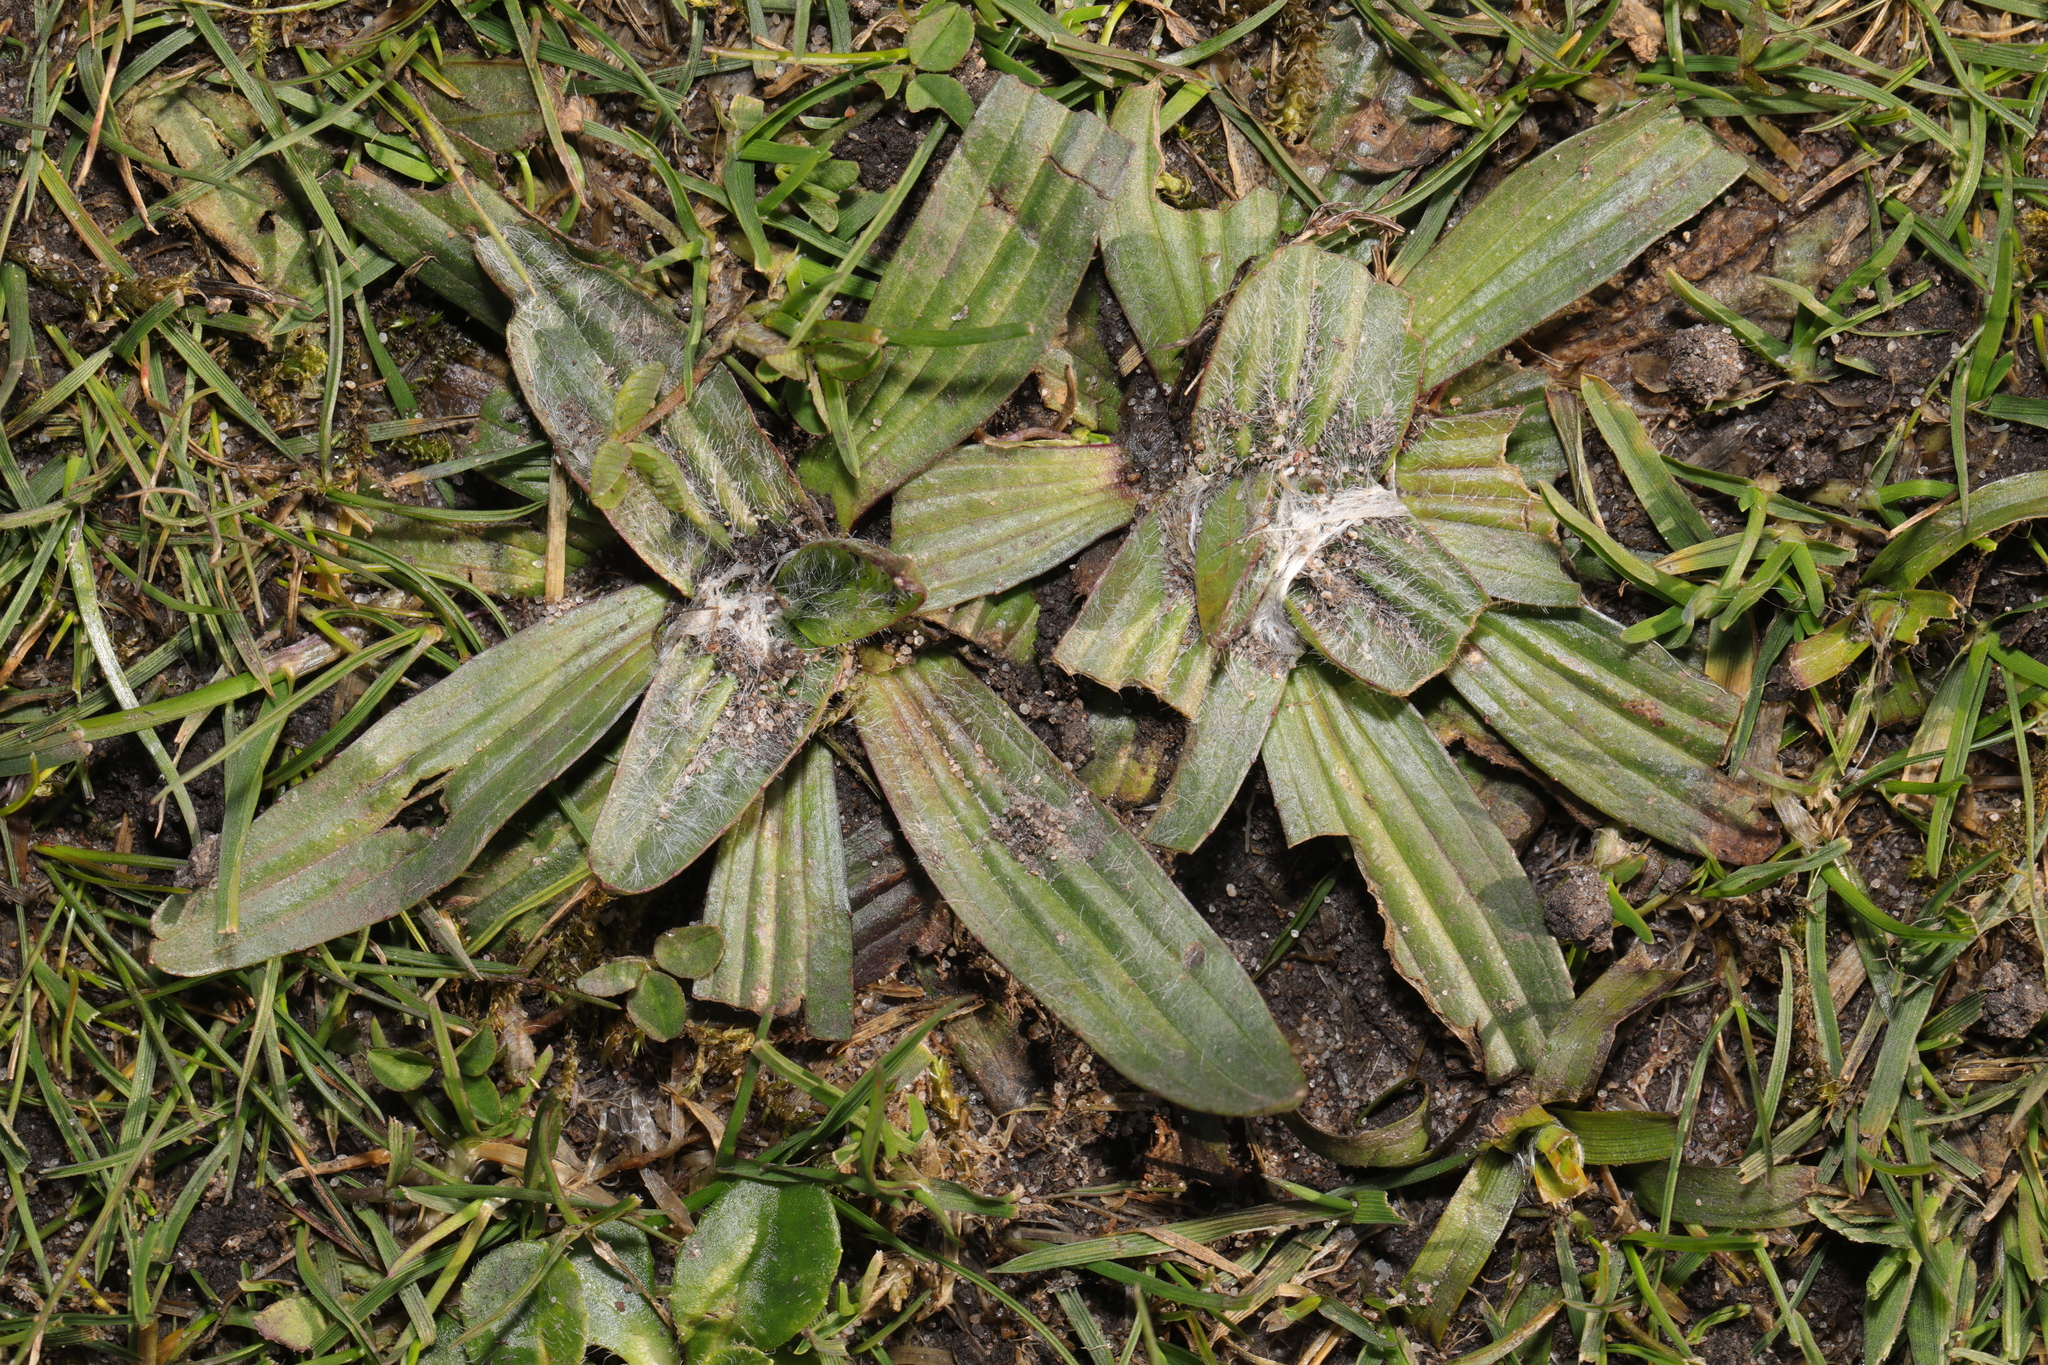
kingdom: Plantae
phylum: Tracheophyta
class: Magnoliopsida
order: Lamiales
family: Plantaginaceae
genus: Plantago
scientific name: Plantago lanceolata
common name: Ribwort plantain
